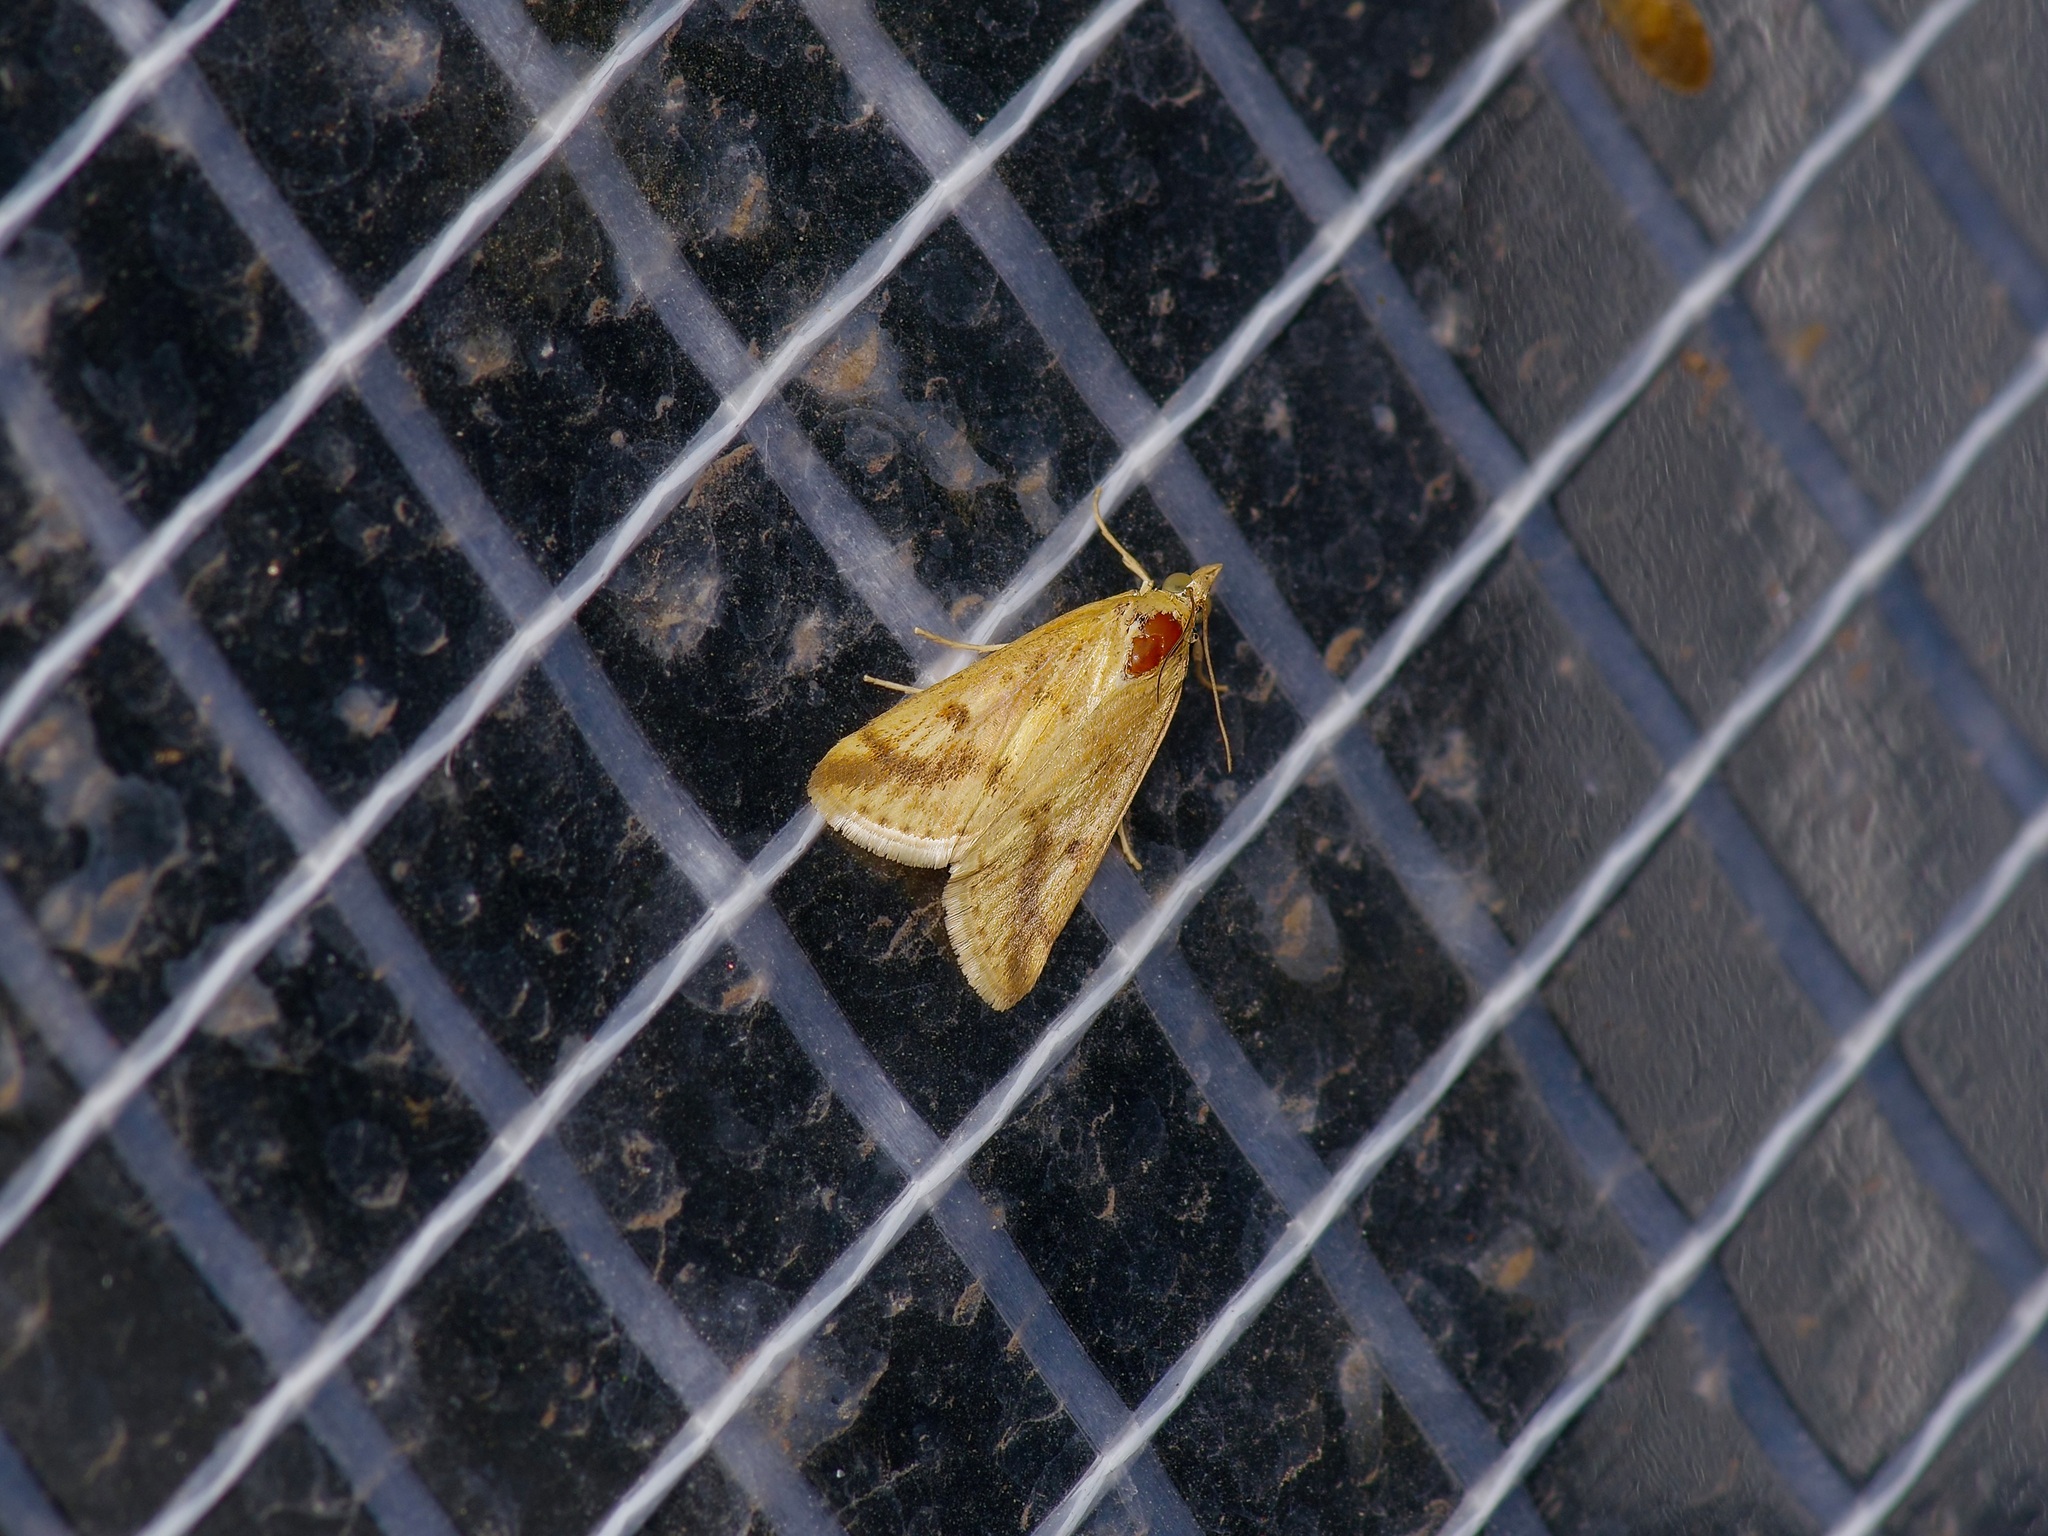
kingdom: Animalia
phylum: Arthropoda
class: Insecta
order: Lepidoptera
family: Crambidae
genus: Achyra
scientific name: Achyra bifidalis
